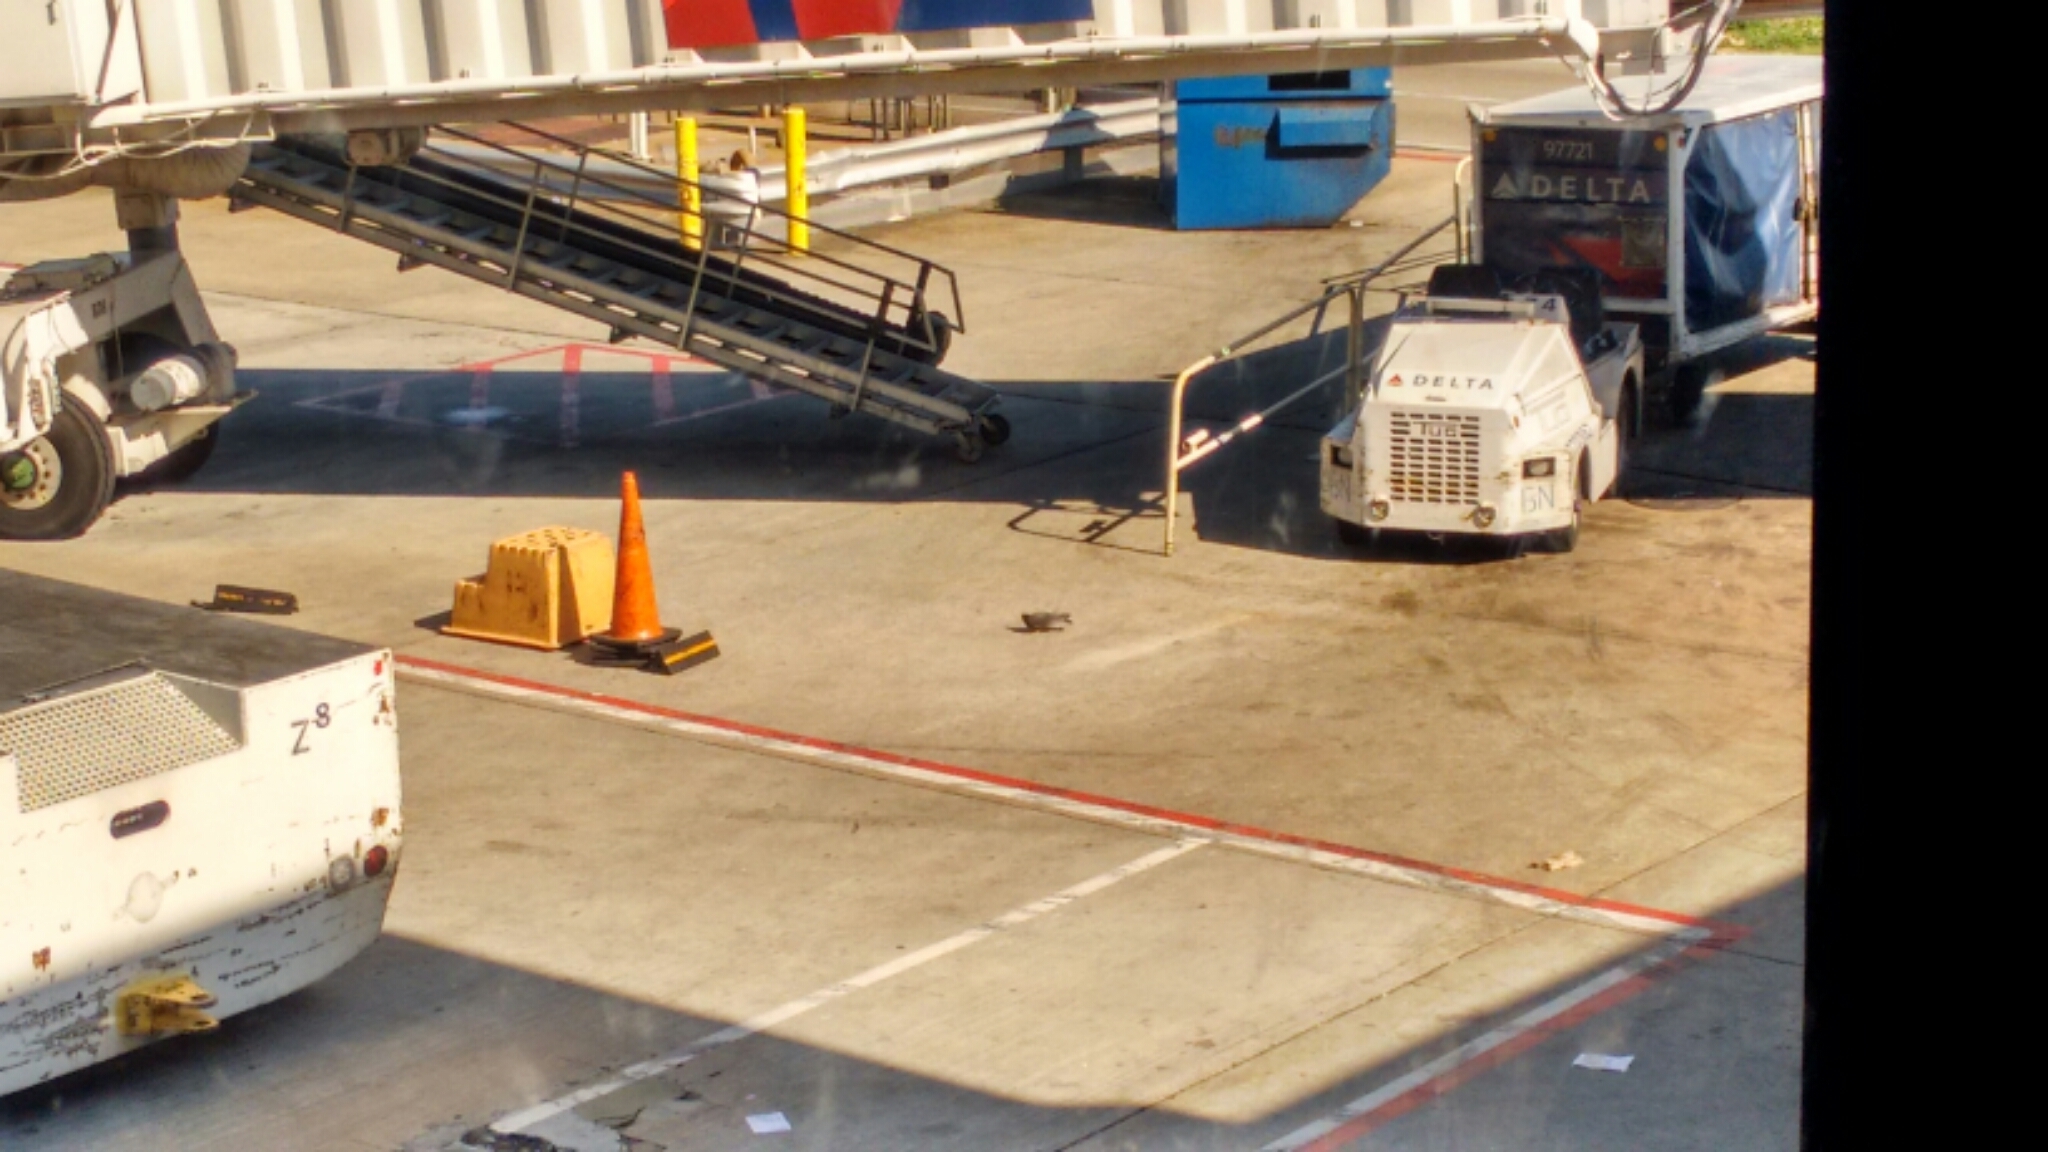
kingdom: Animalia
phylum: Chordata
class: Aves
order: Columbiformes
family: Columbidae
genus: Columba
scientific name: Columba livia
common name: Rock pigeon
